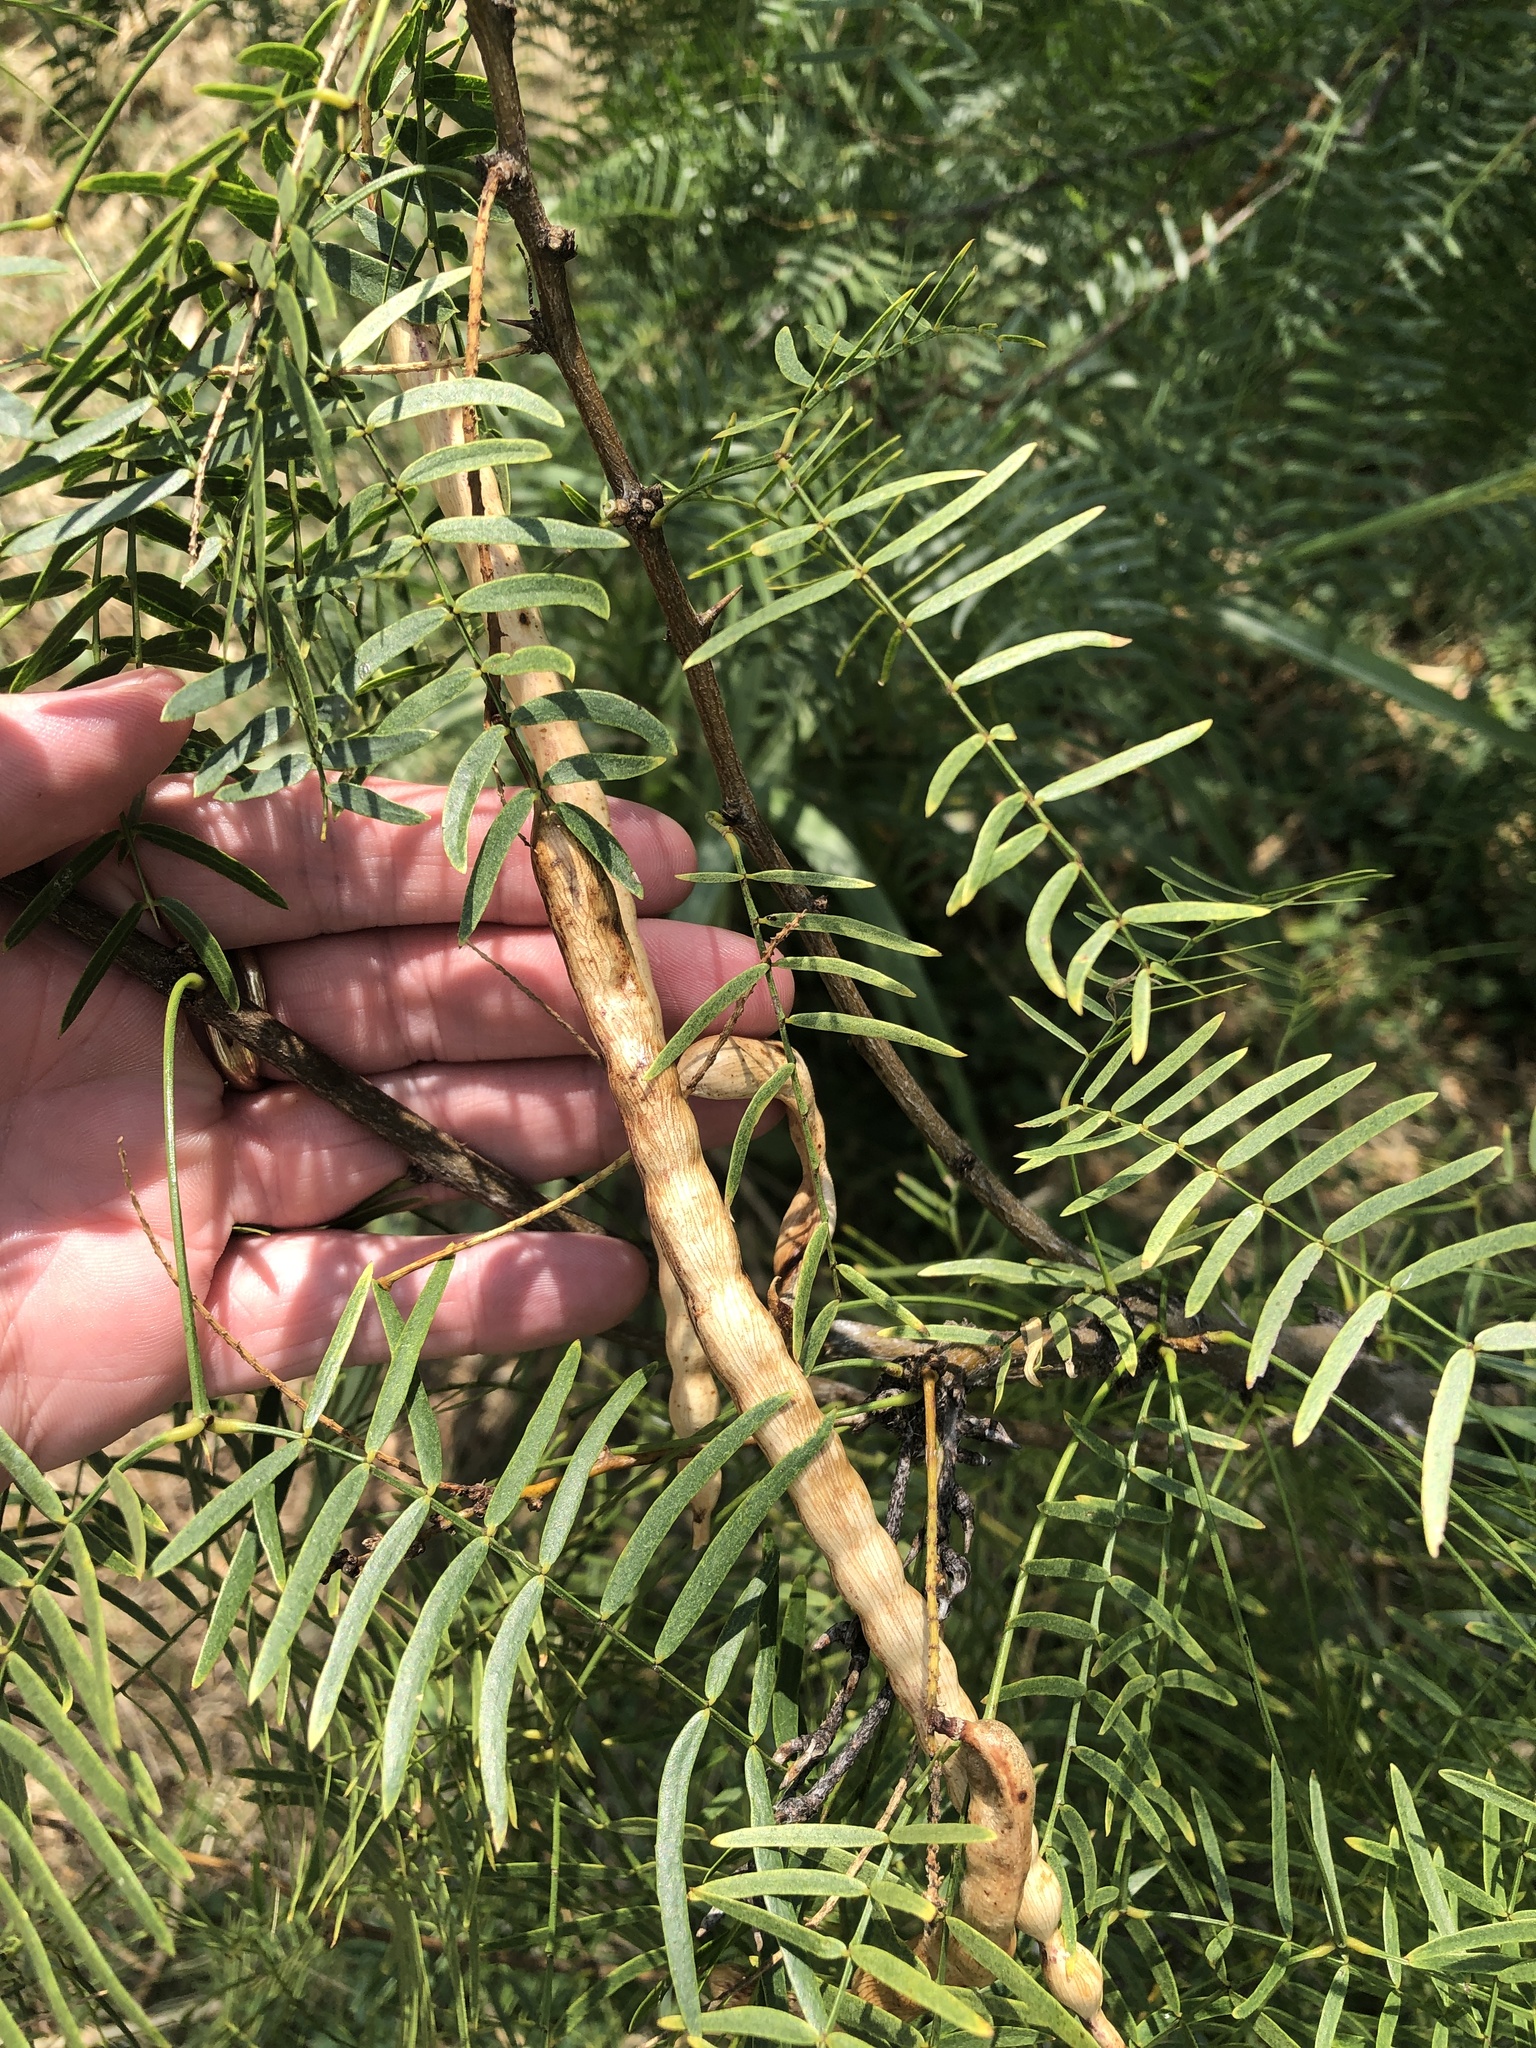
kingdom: Plantae
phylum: Tracheophyta
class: Magnoliopsida
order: Fabales
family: Fabaceae
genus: Prosopis
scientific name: Prosopis glandulosa
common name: Honey mesquite
